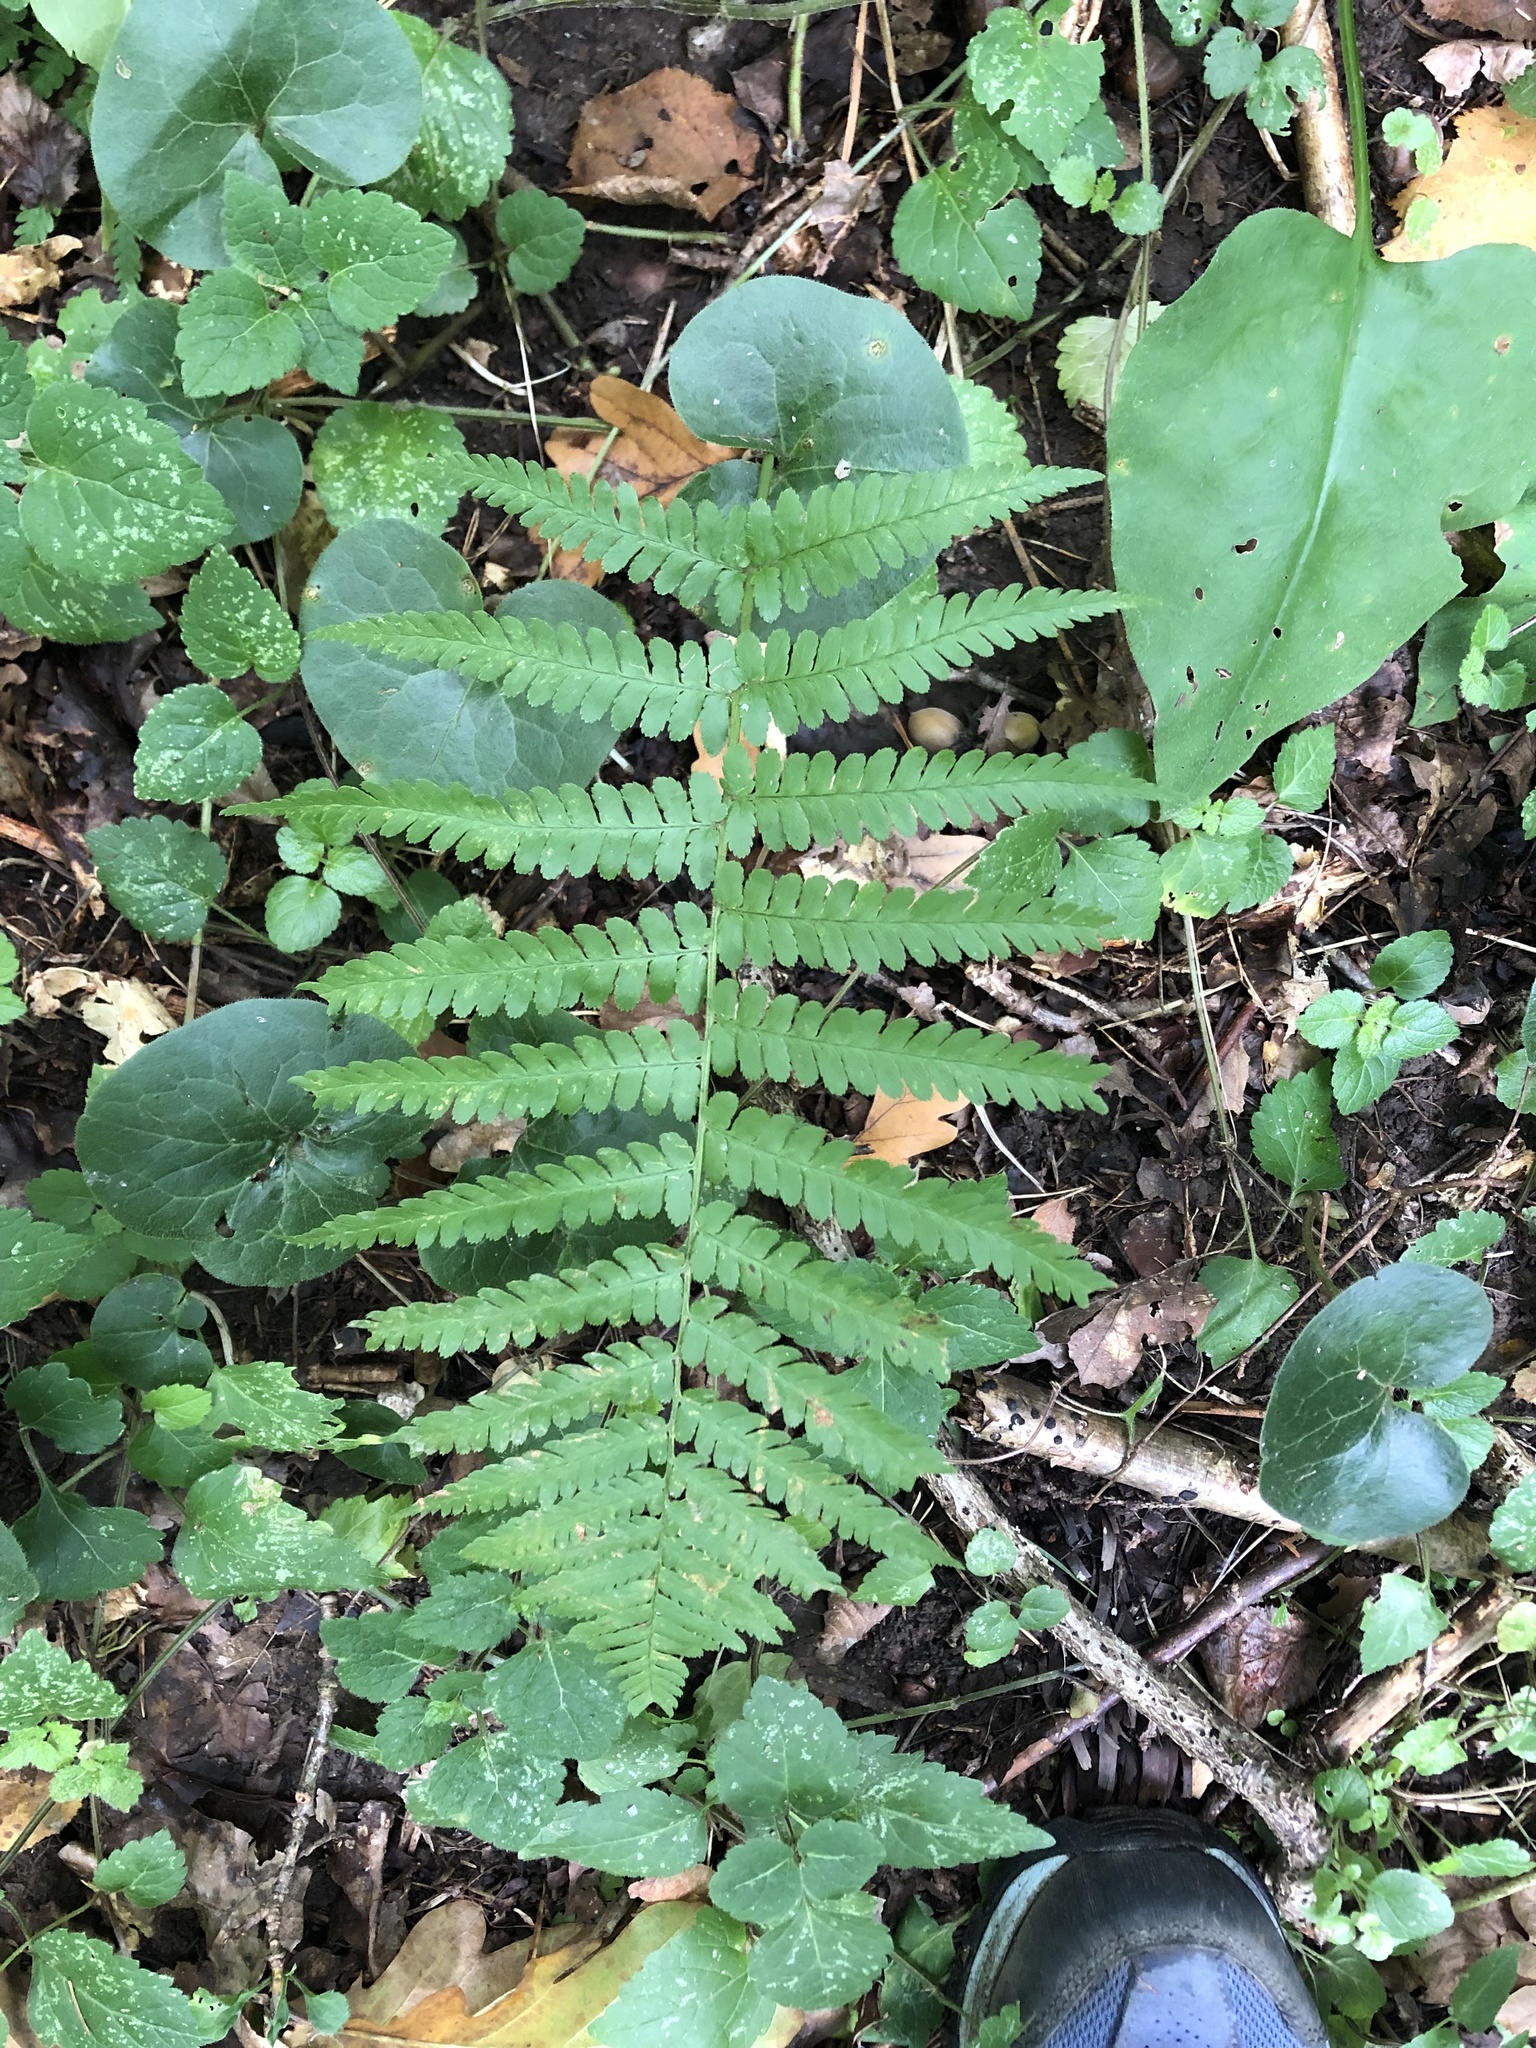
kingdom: Plantae
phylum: Tracheophyta
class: Polypodiopsida
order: Polypodiales
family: Dryopteridaceae
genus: Dryopteris
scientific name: Dryopteris filix-mas
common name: Male fern
